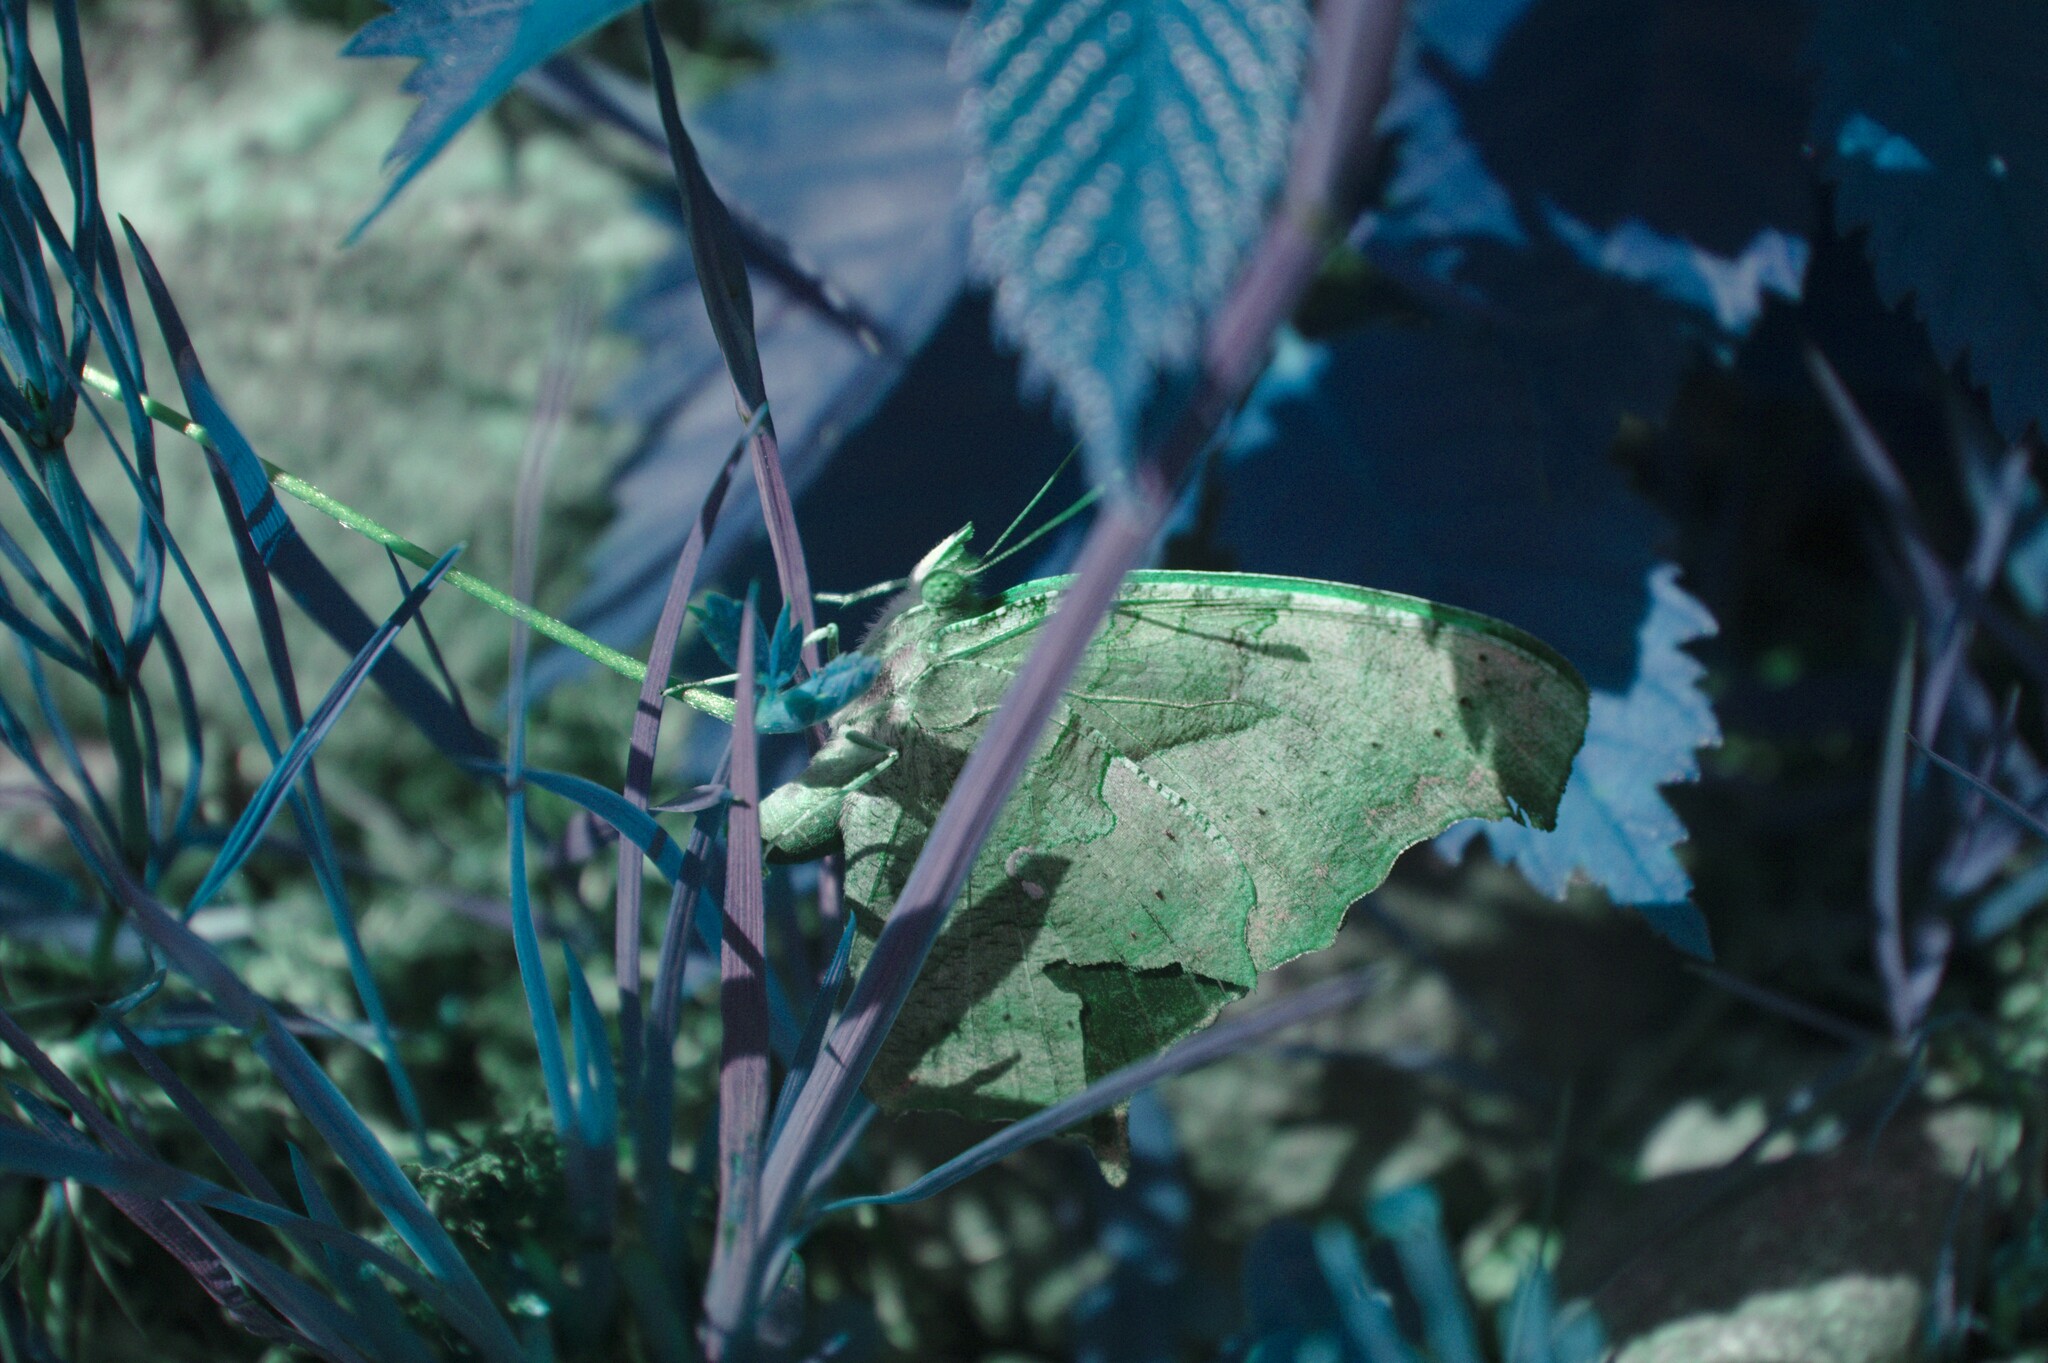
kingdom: Animalia
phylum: Arthropoda
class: Insecta
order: Lepidoptera
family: Nymphalidae
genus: Polygonia
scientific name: Polygonia interrogationis
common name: Question mark
